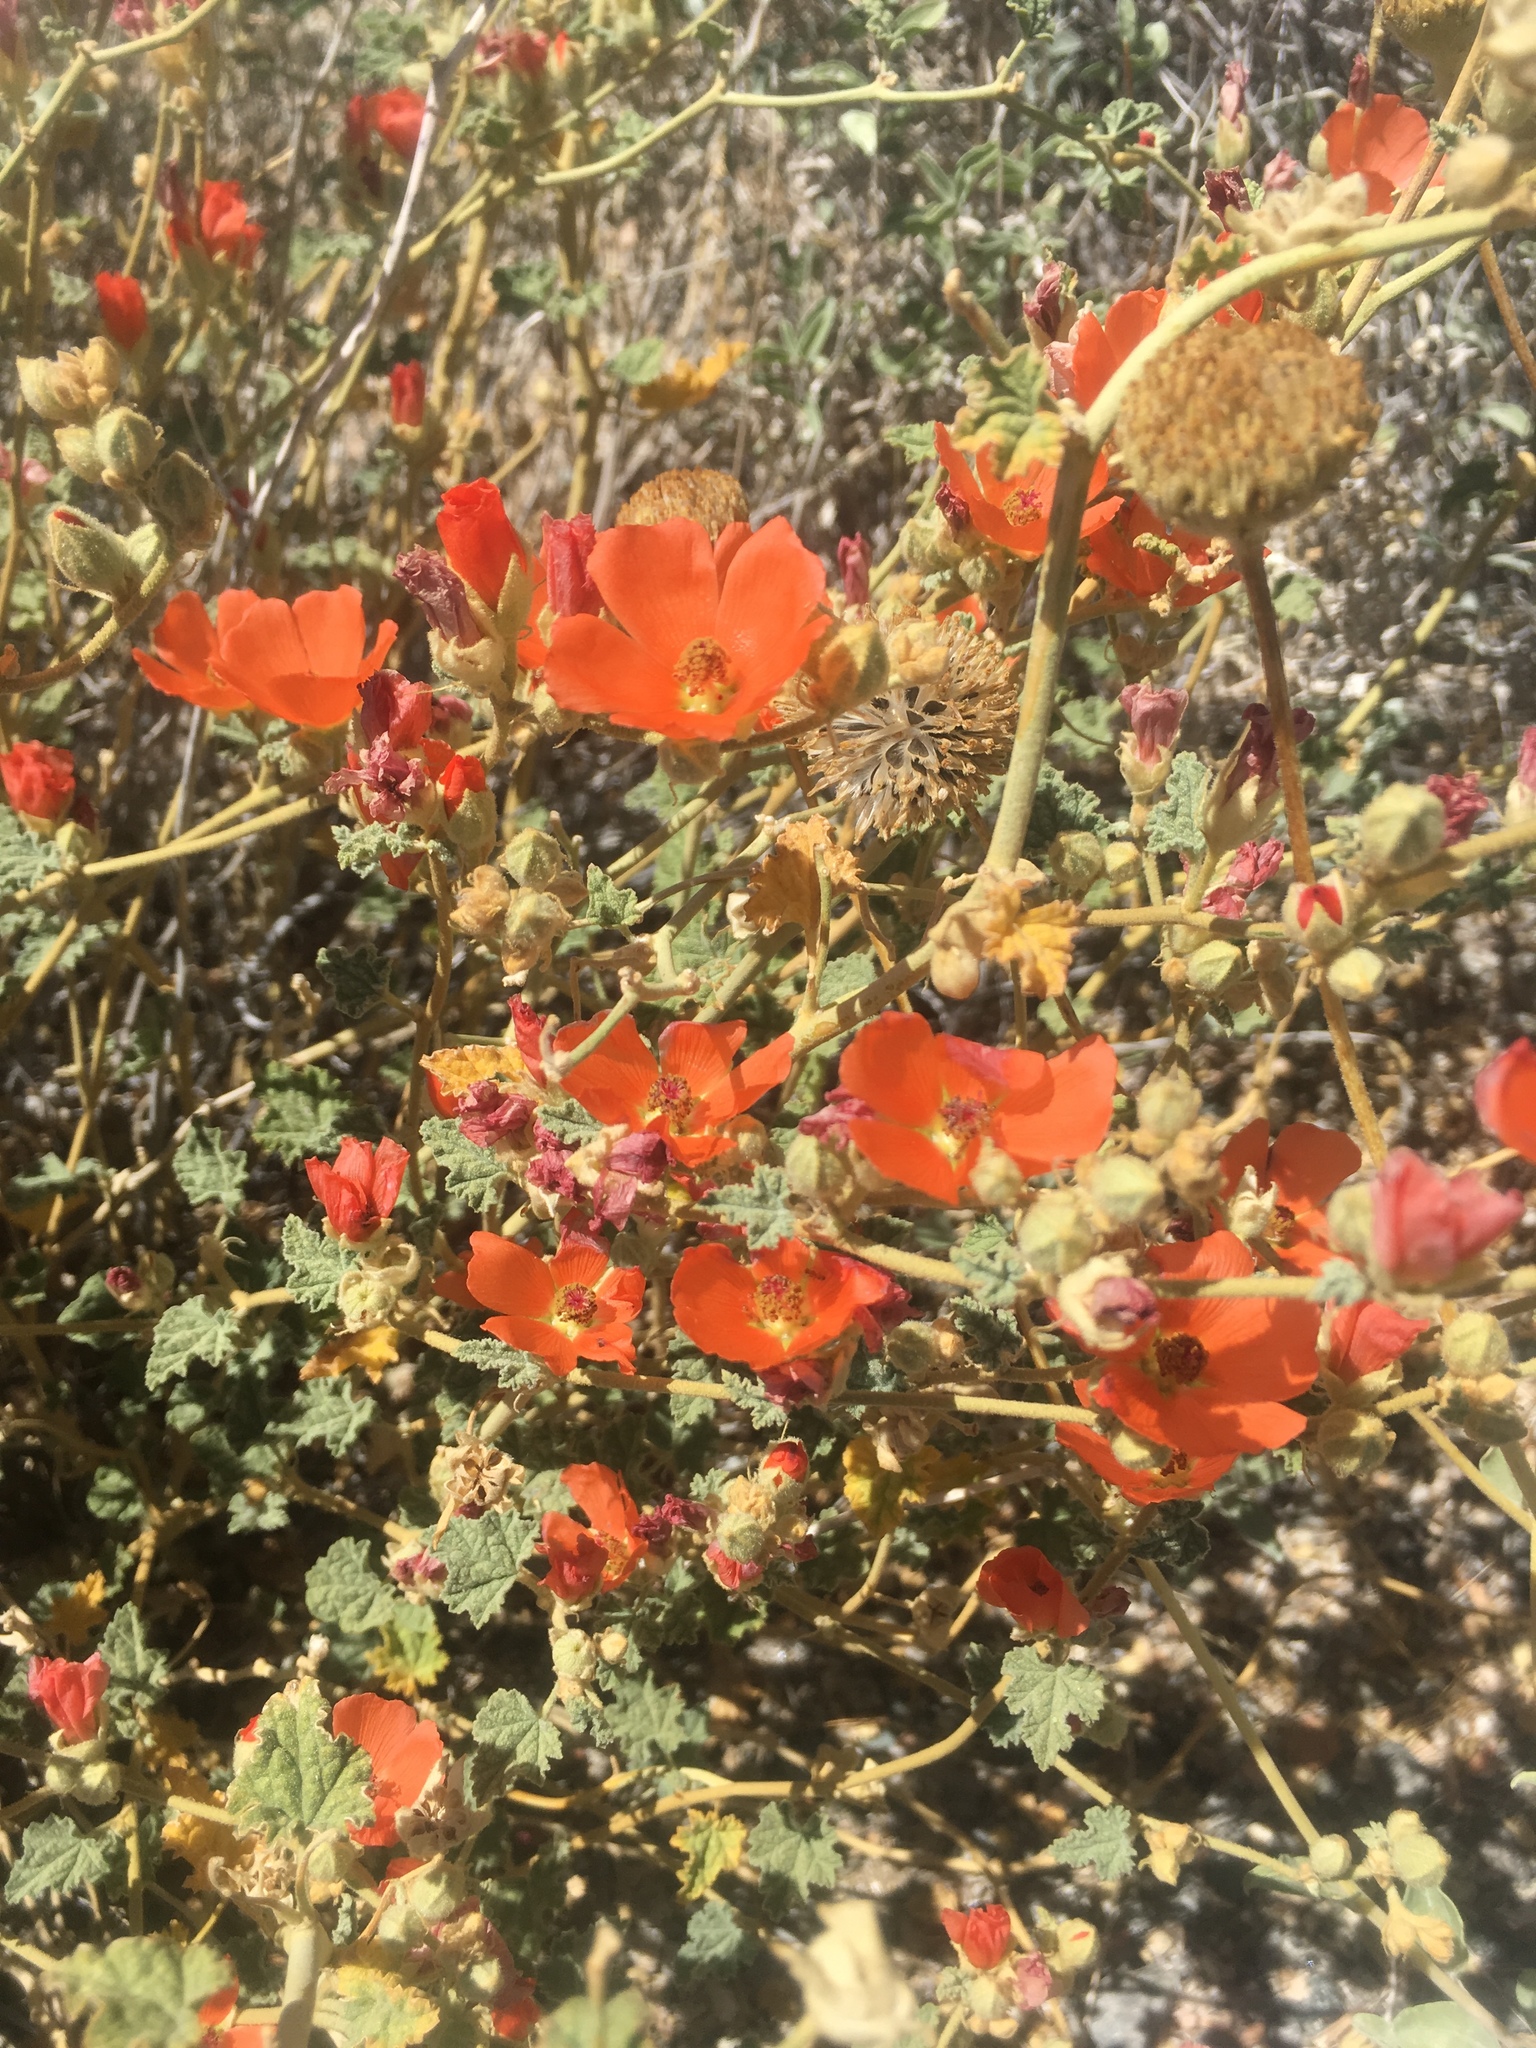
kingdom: Plantae
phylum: Tracheophyta
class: Magnoliopsida
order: Malvales
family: Malvaceae
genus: Sphaeralcea
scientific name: Sphaeralcea ambigua
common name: Apricot globe-mallow
